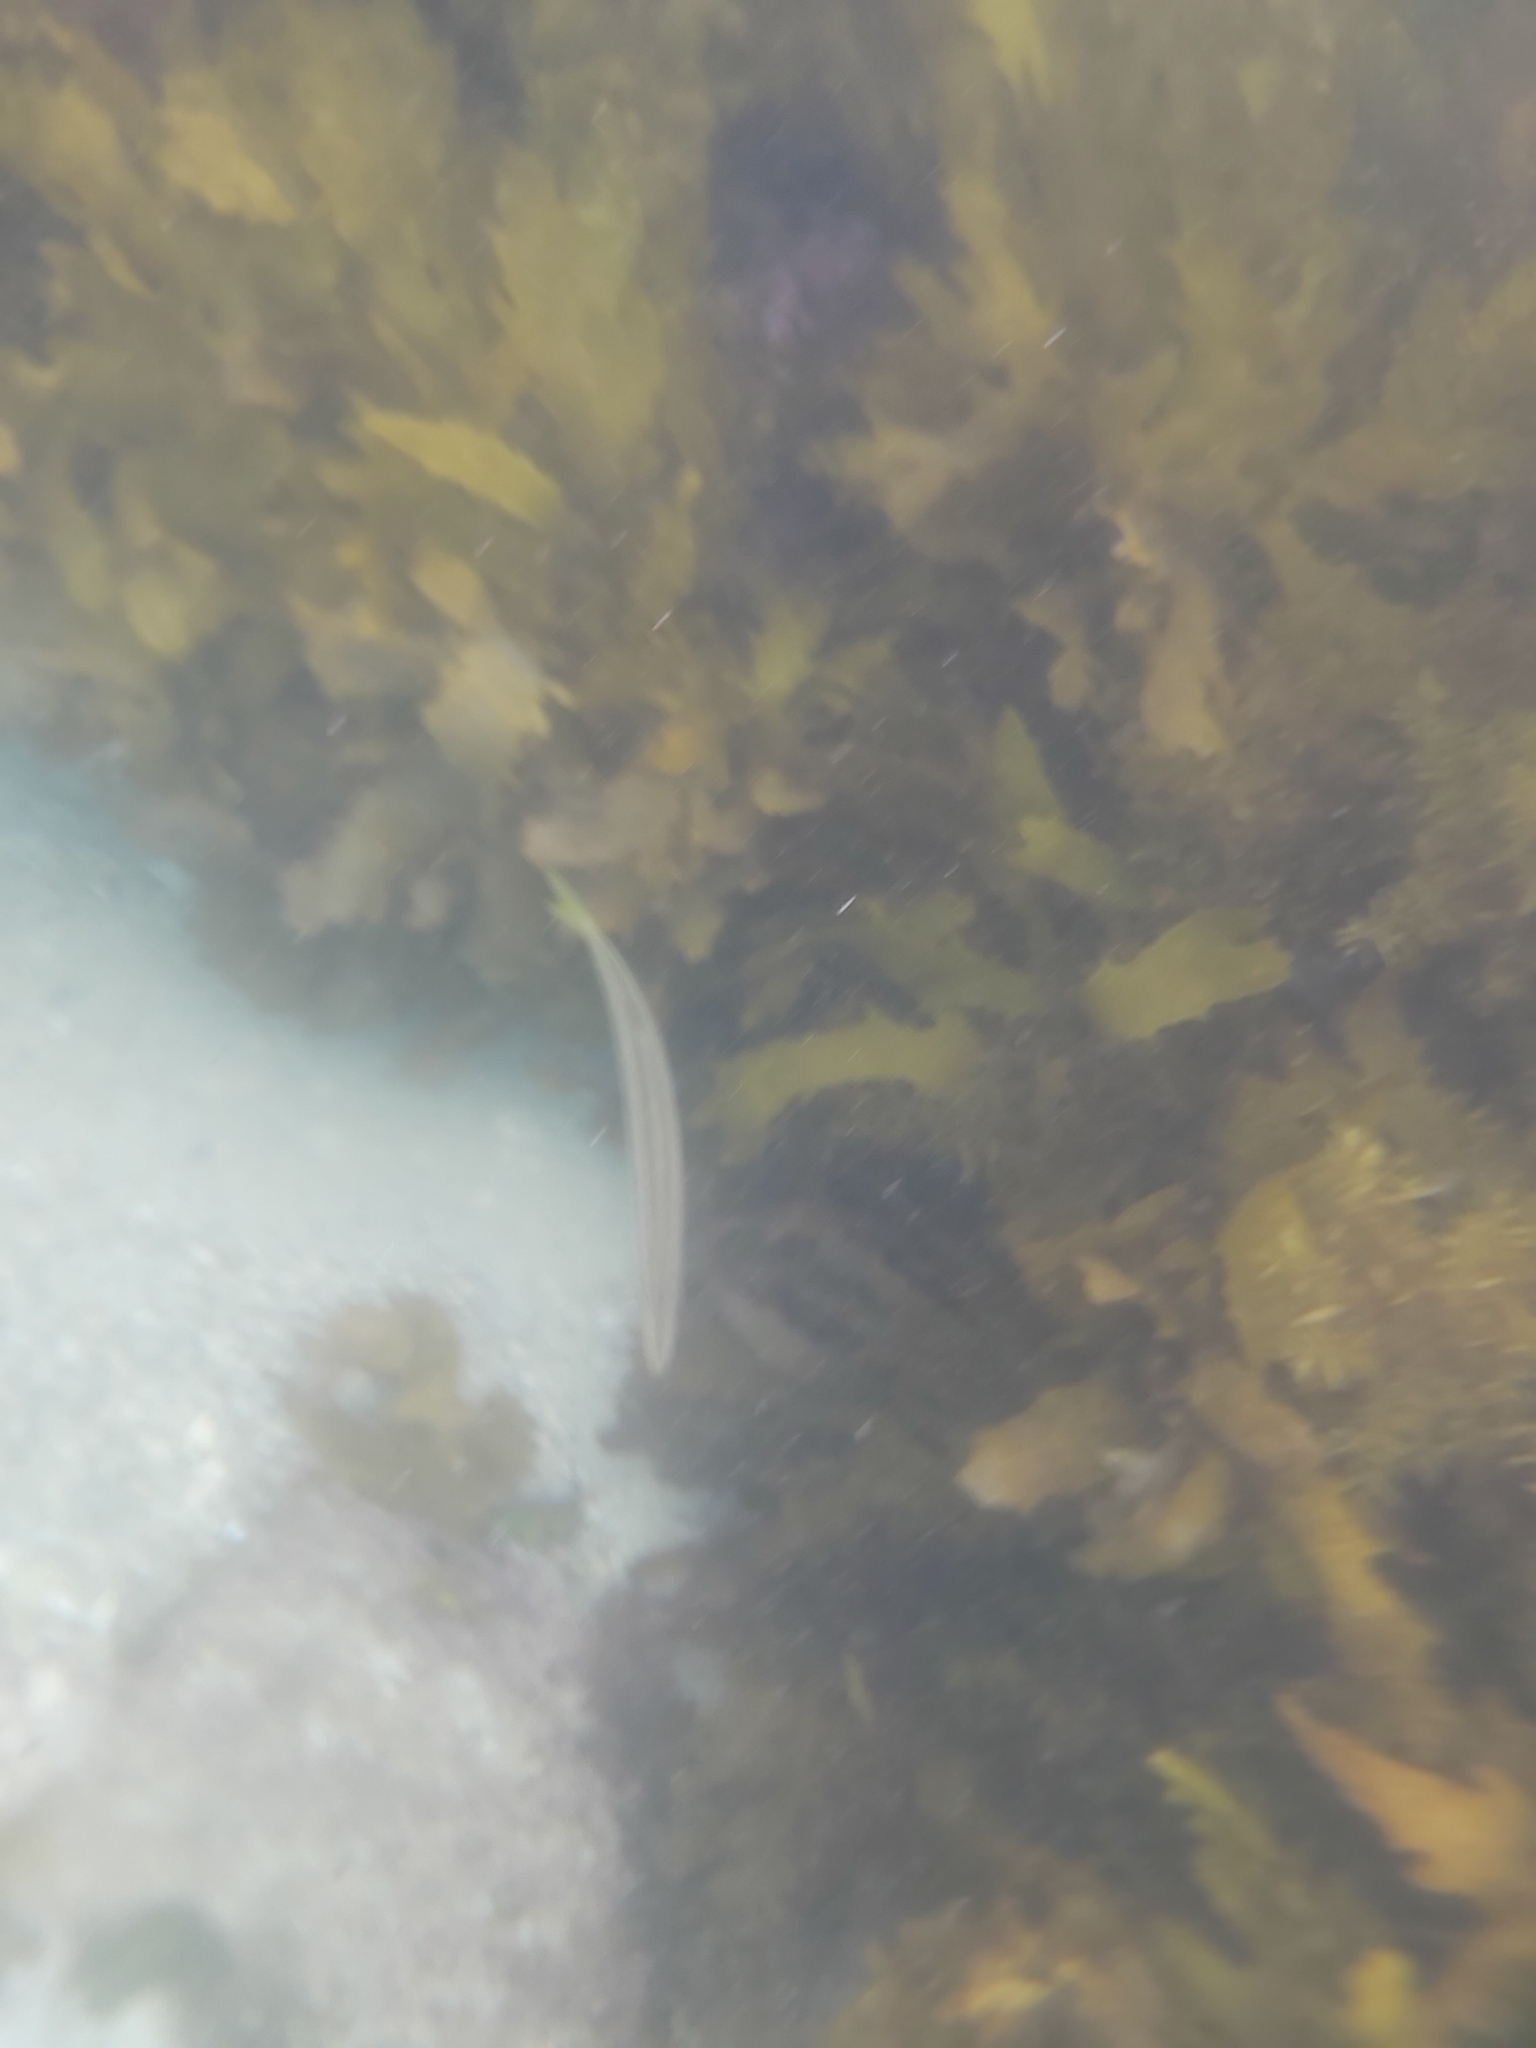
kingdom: Animalia
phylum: Chordata
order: Perciformes
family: Sphyraenidae
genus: Sphyraena
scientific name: Sphyraena obtusata
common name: Obtuse barracuda
